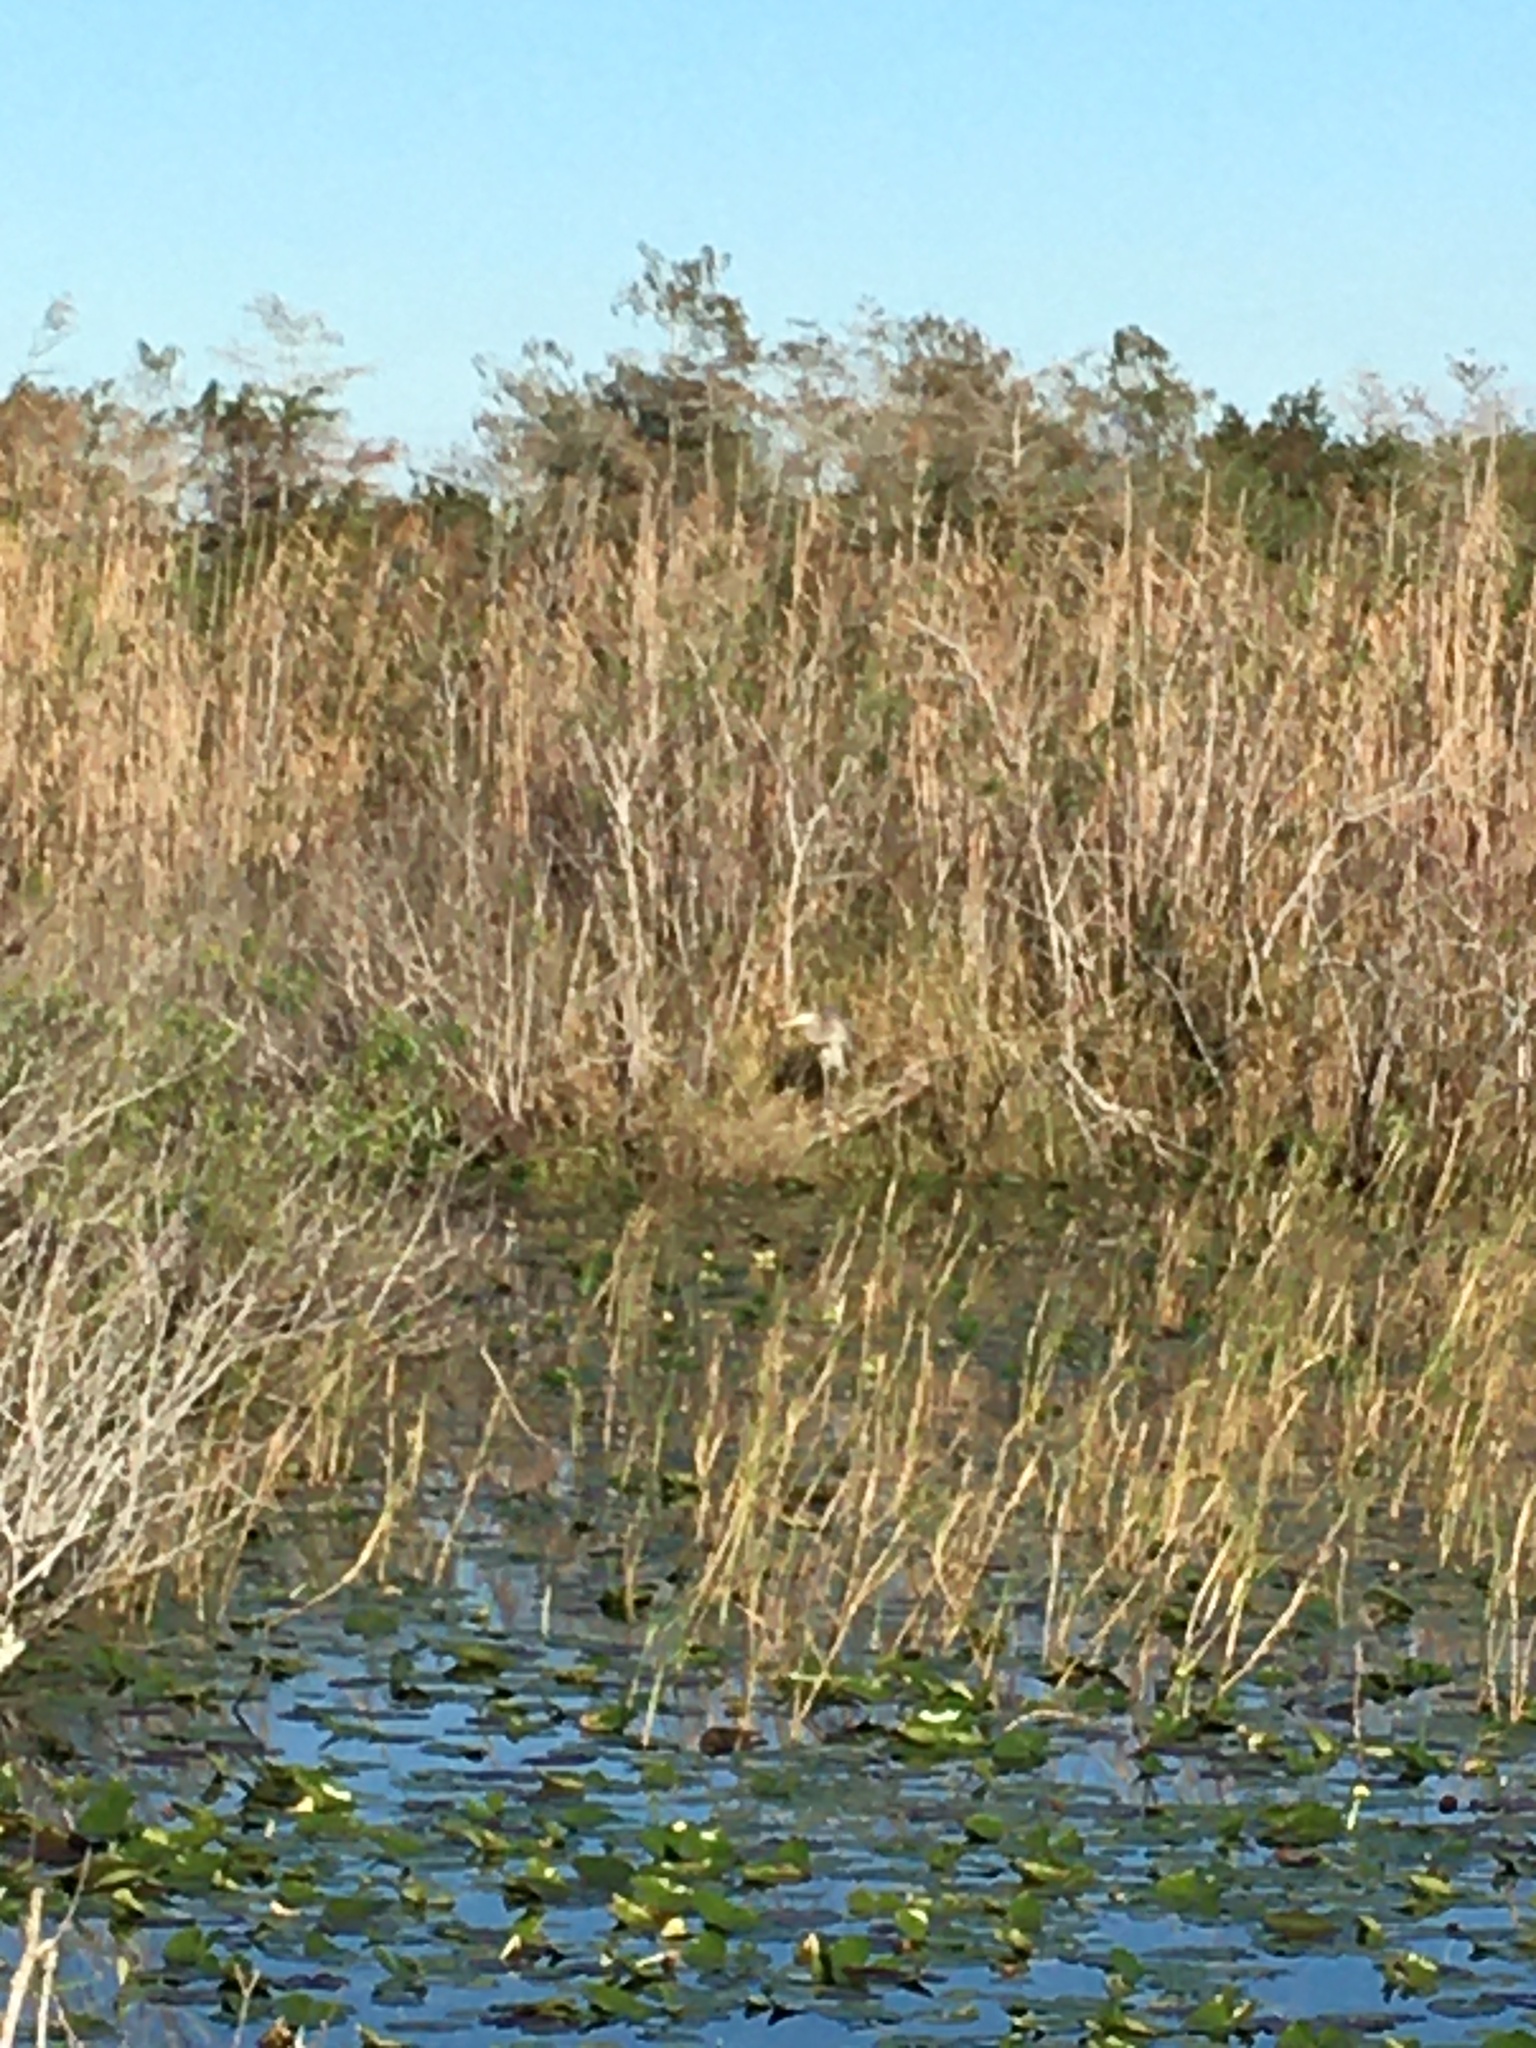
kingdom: Animalia
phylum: Chordata
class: Aves
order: Pelecaniformes
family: Ardeidae
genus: Ardea
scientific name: Ardea herodias
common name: Great blue heron
